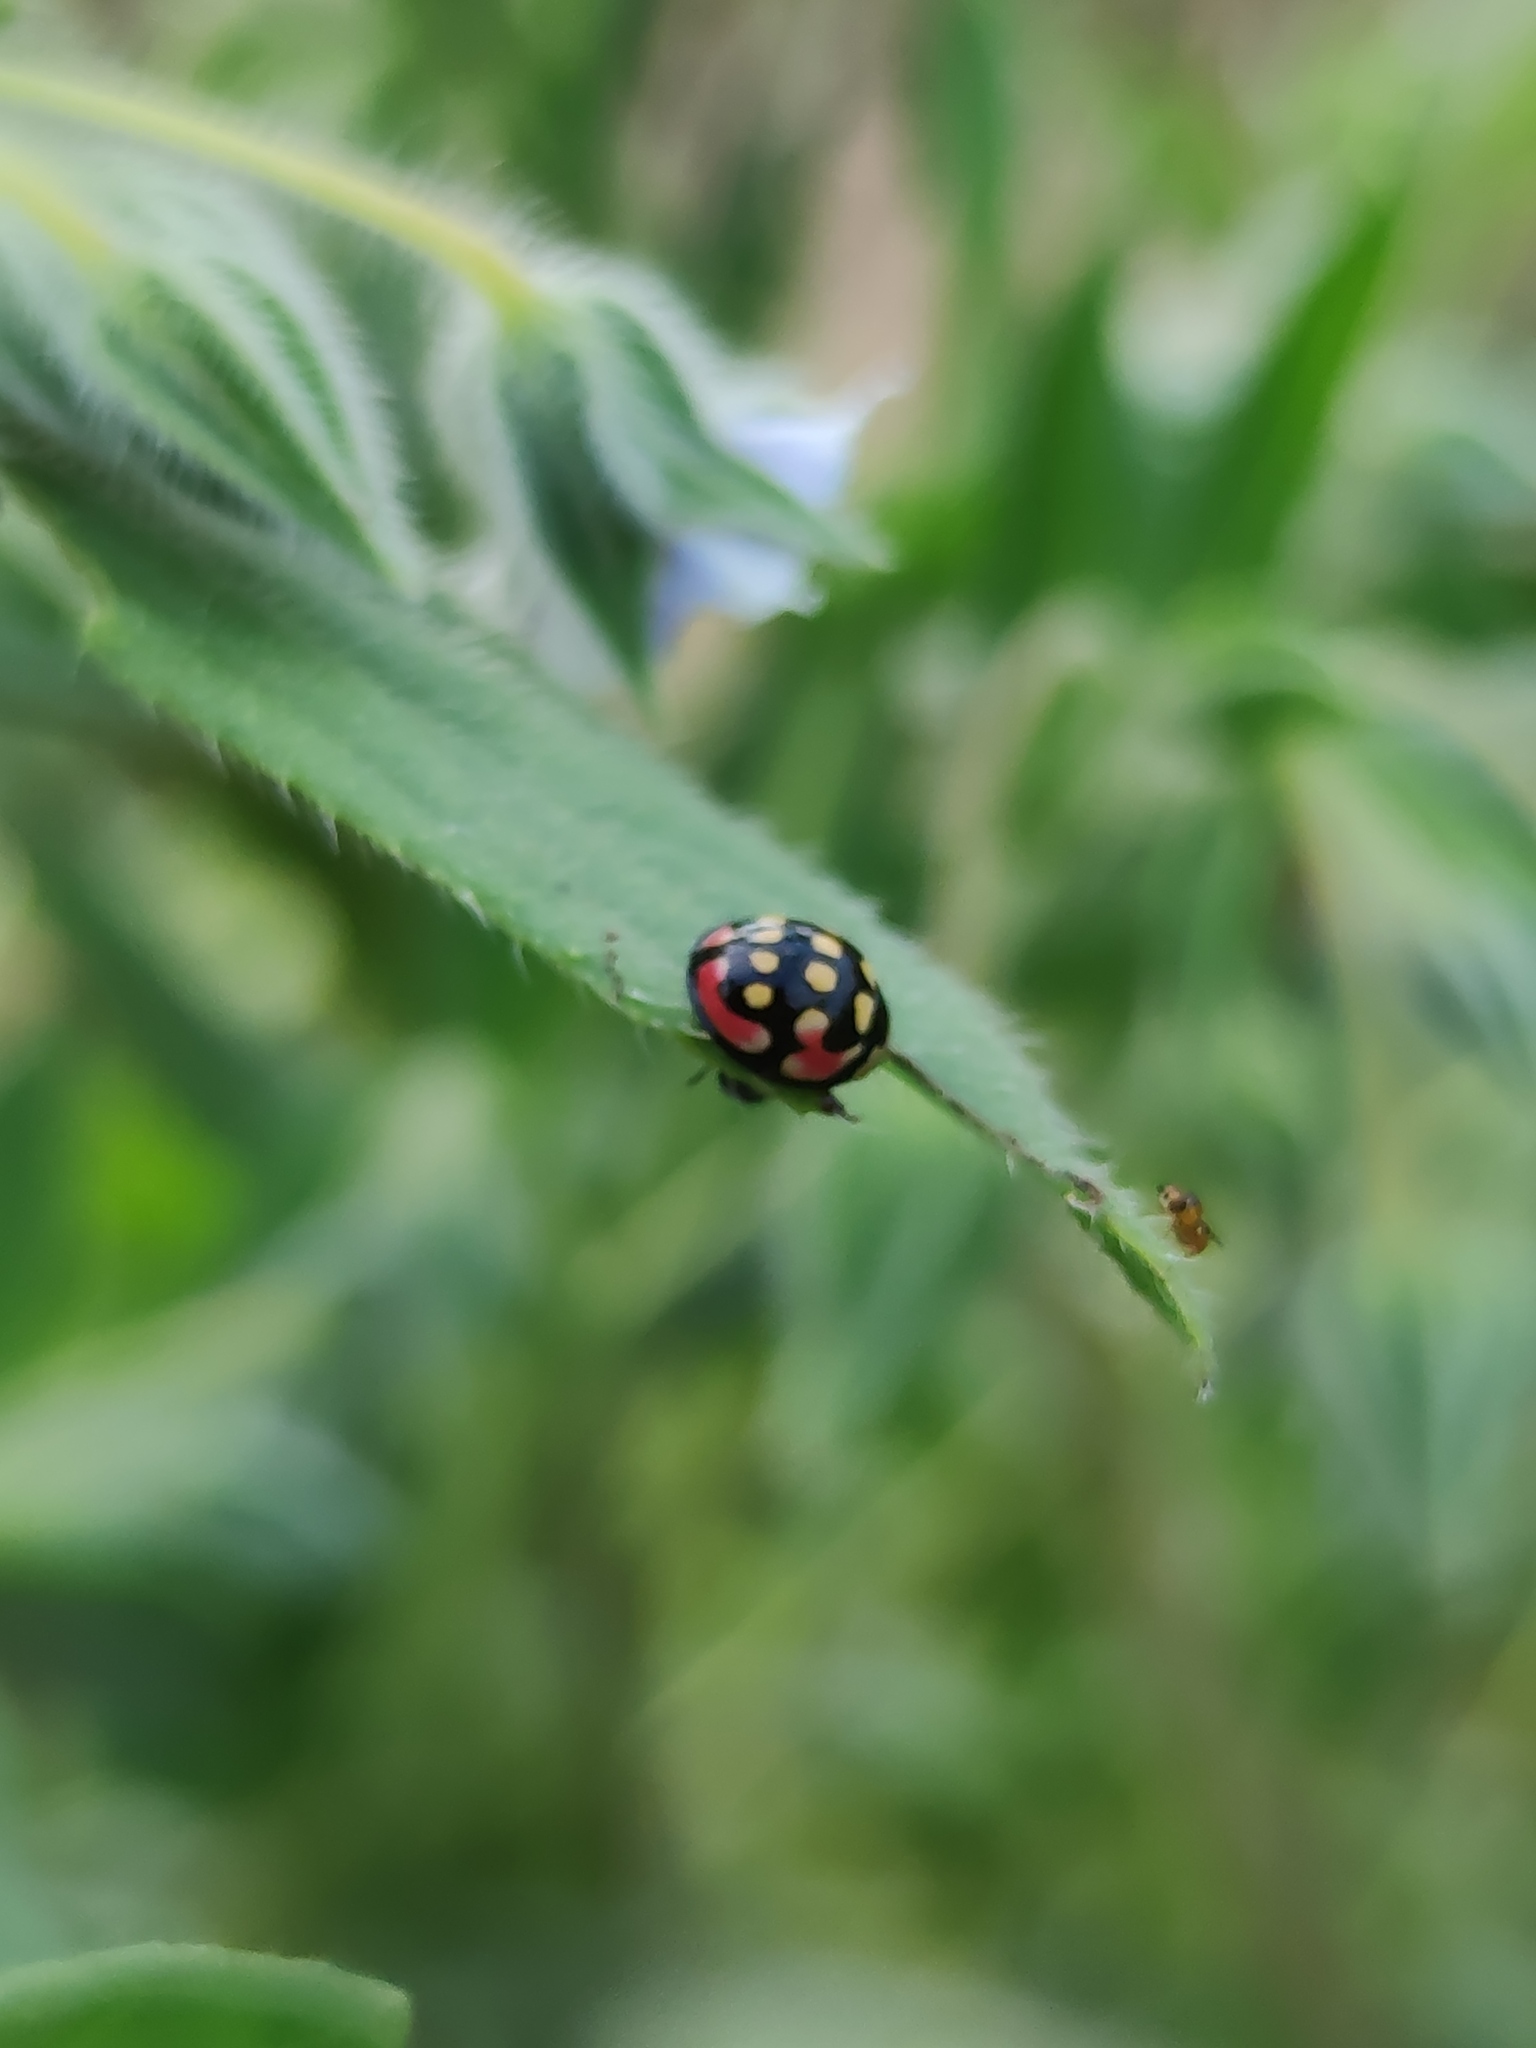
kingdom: Animalia
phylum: Arthropoda
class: Insecta
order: Coleoptera
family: Coccinellidae
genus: Cheilomenes
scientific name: Cheilomenes sulphurea
